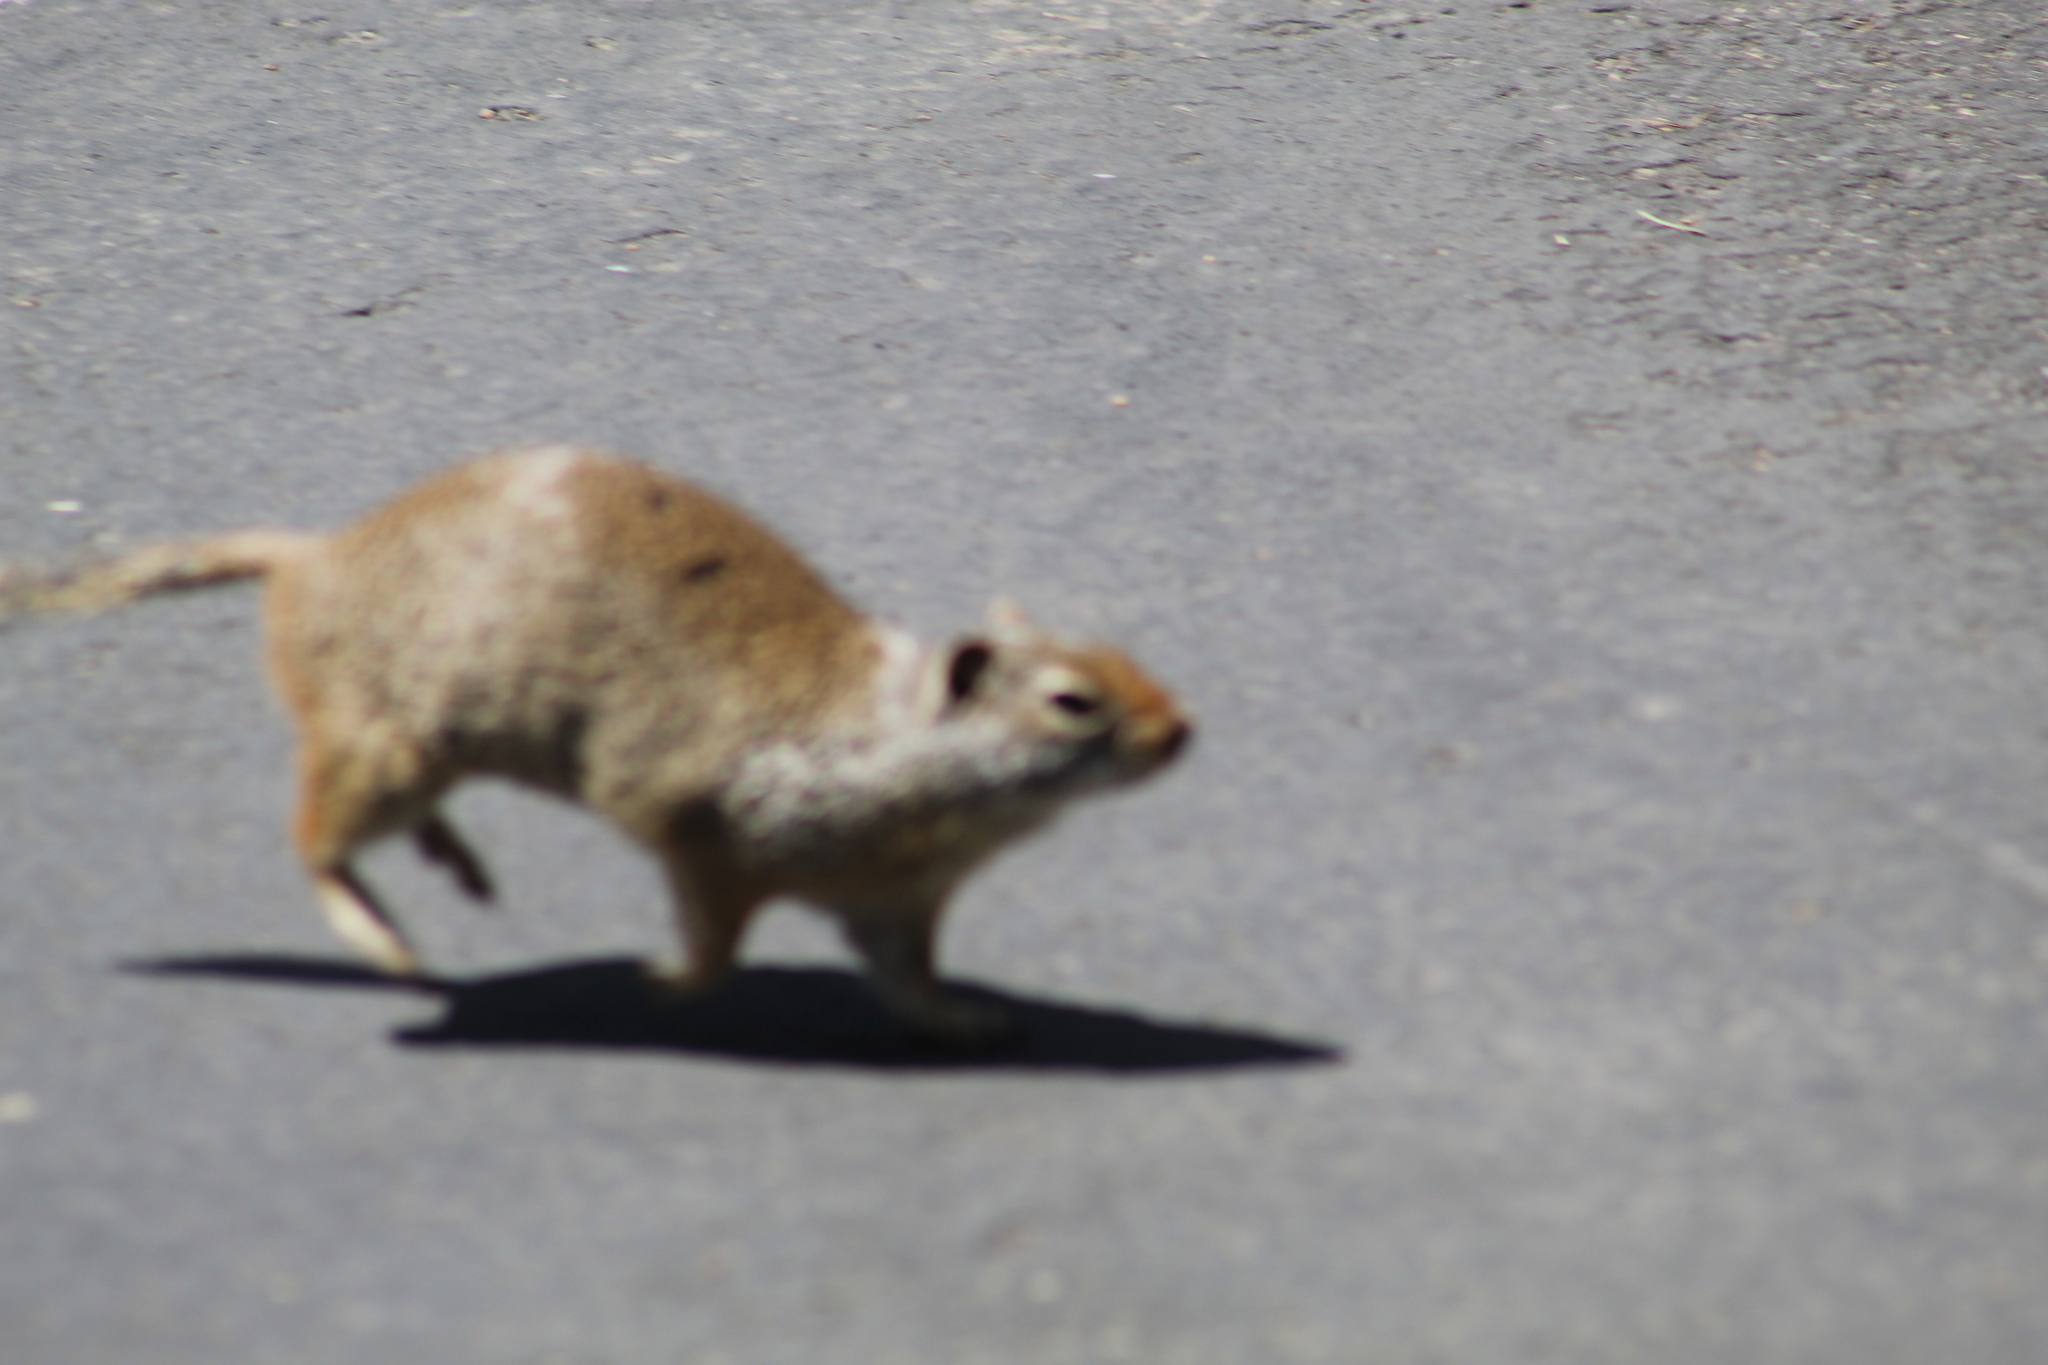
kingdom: Animalia
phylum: Chordata
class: Mammalia
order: Rodentia
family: Sciuridae
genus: Urocitellus
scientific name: Urocitellus armatus
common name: Uinta ground squirrel
